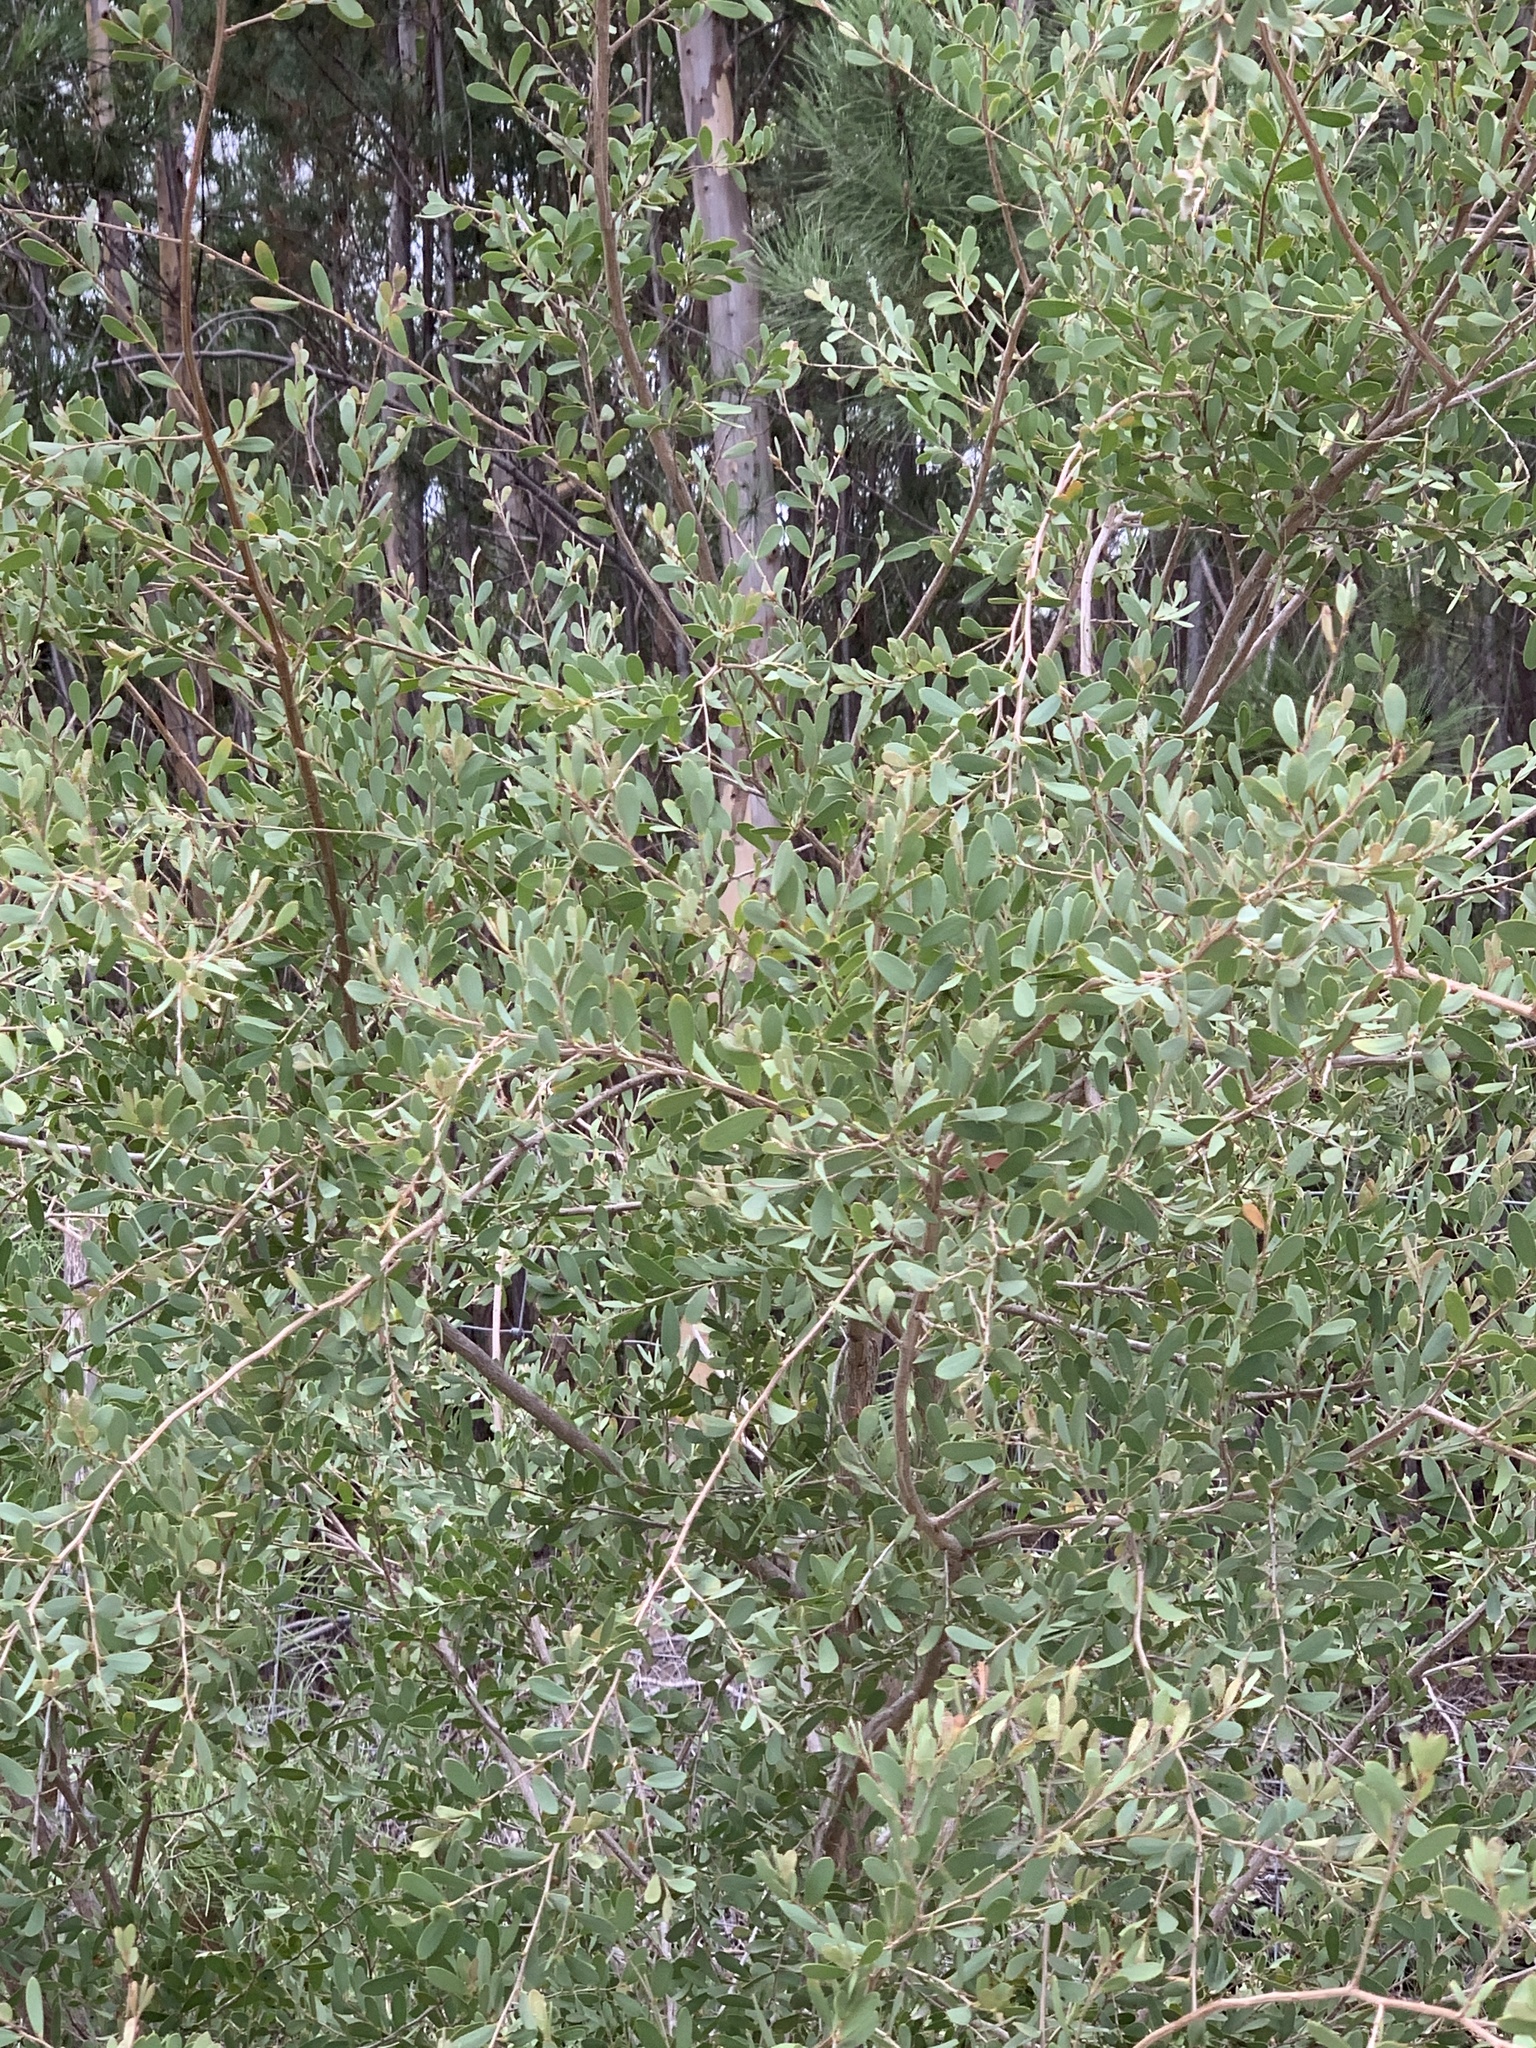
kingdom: Plantae
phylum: Tracheophyta
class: Magnoliopsida
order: Myrtales
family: Myrtaceae
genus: Leptospermum
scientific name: Leptospermum laevigatum
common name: Australian teatree
